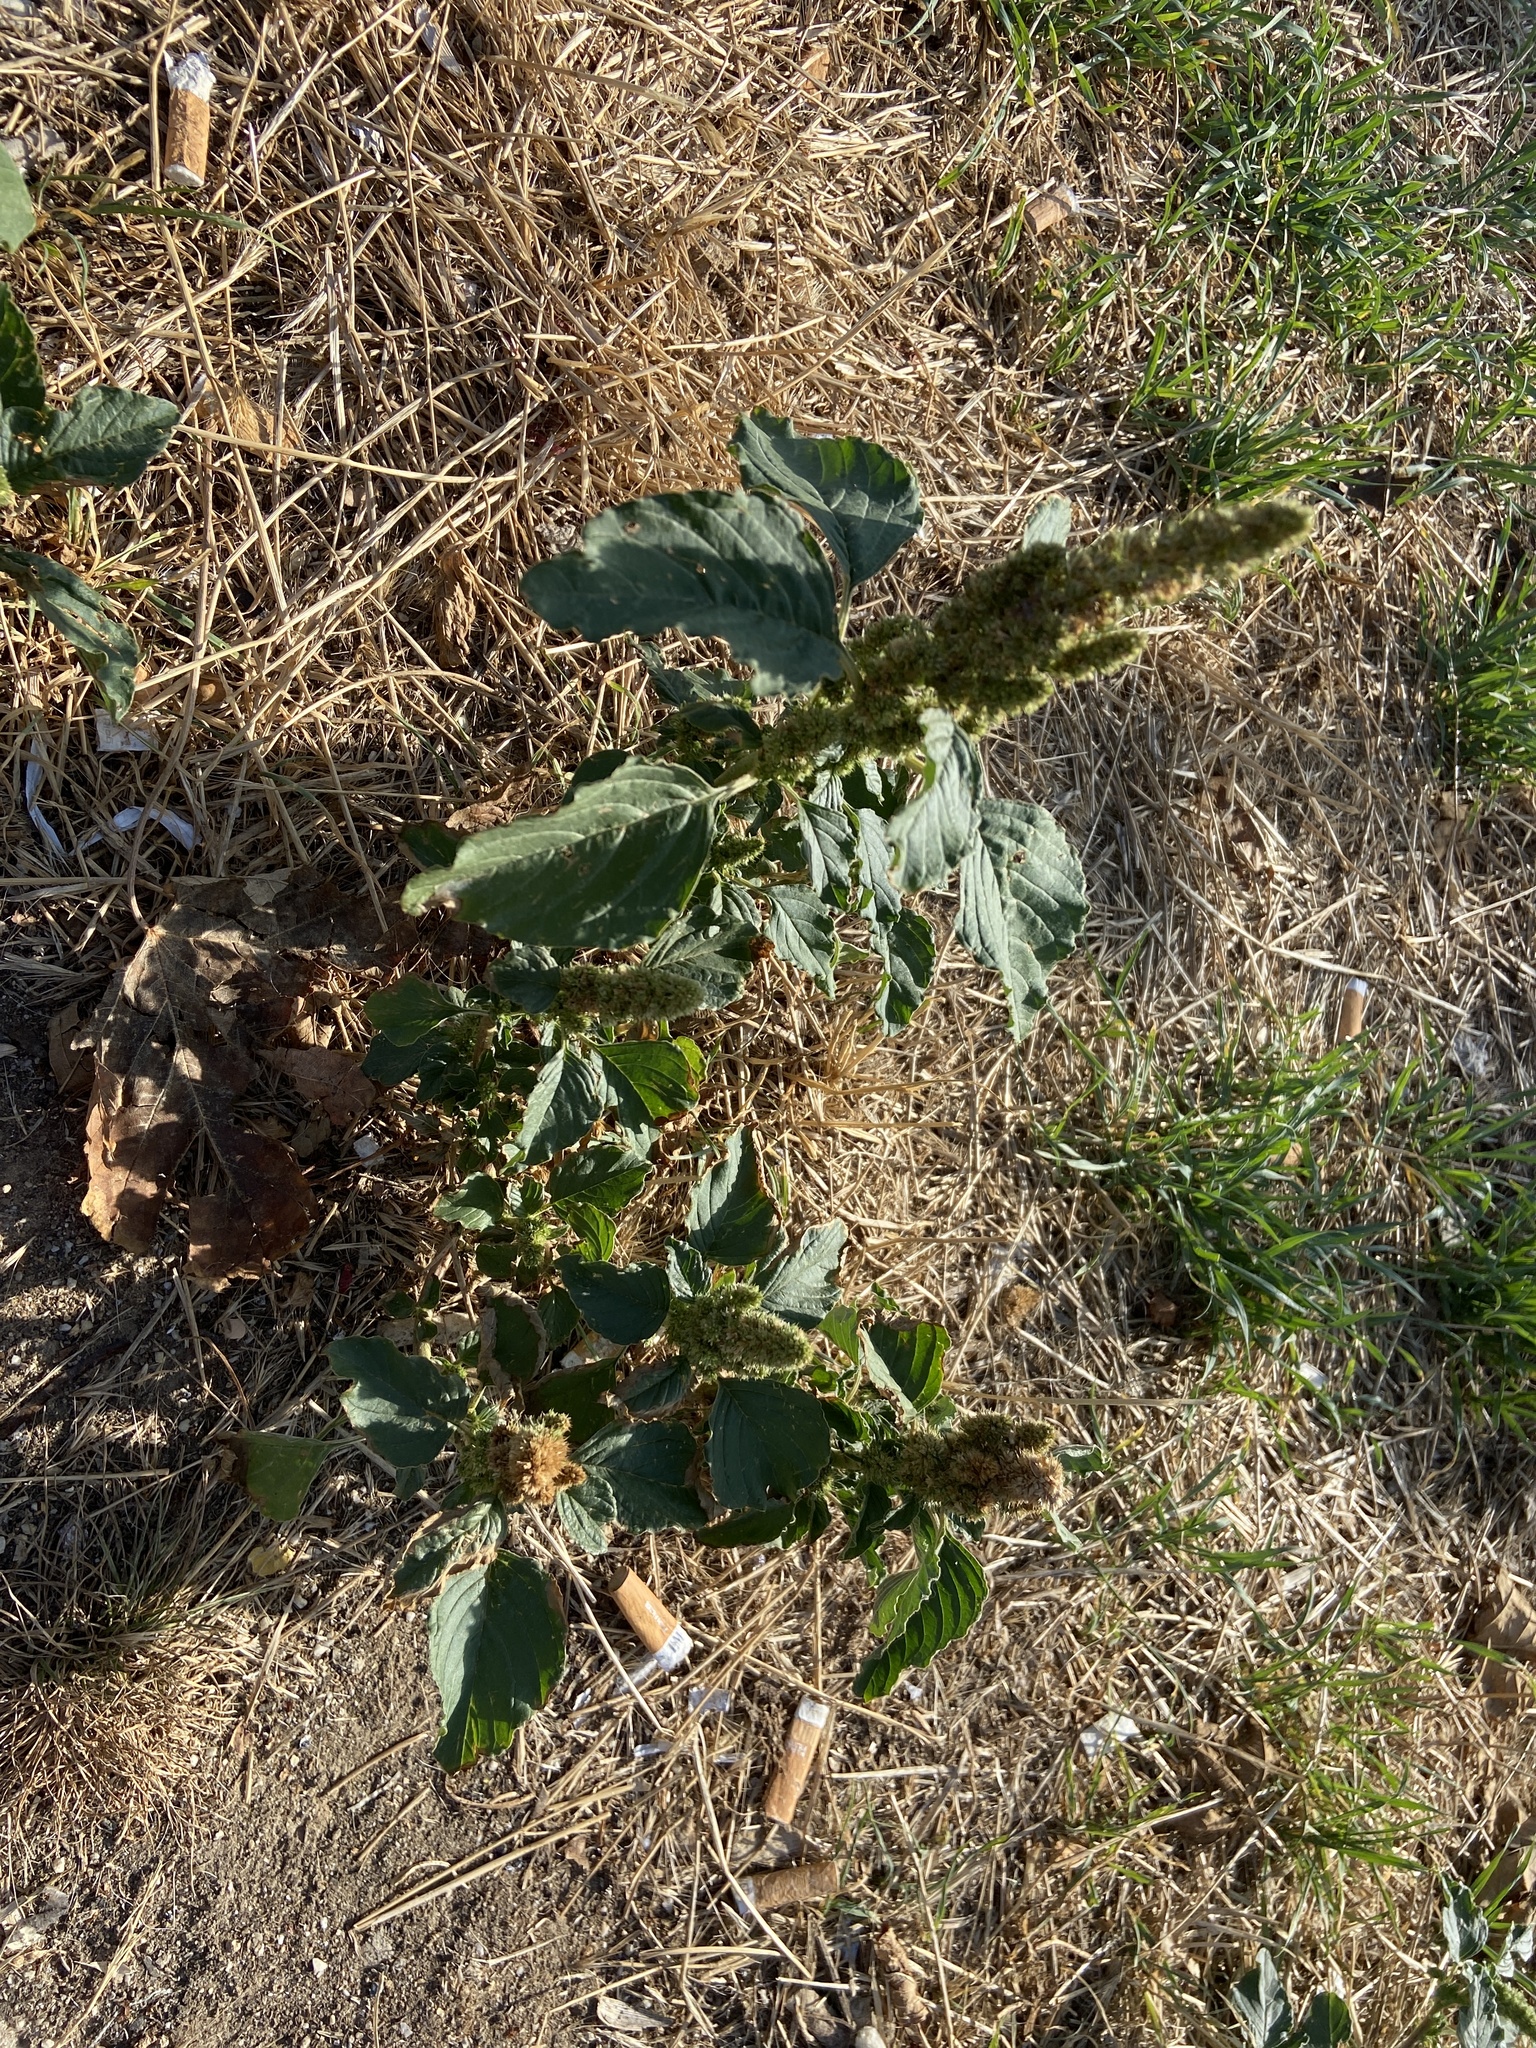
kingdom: Plantae
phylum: Tracheophyta
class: Magnoliopsida
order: Caryophyllales
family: Amaranthaceae
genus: Amaranthus
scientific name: Amaranthus retroflexus
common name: Redroot amaranth
